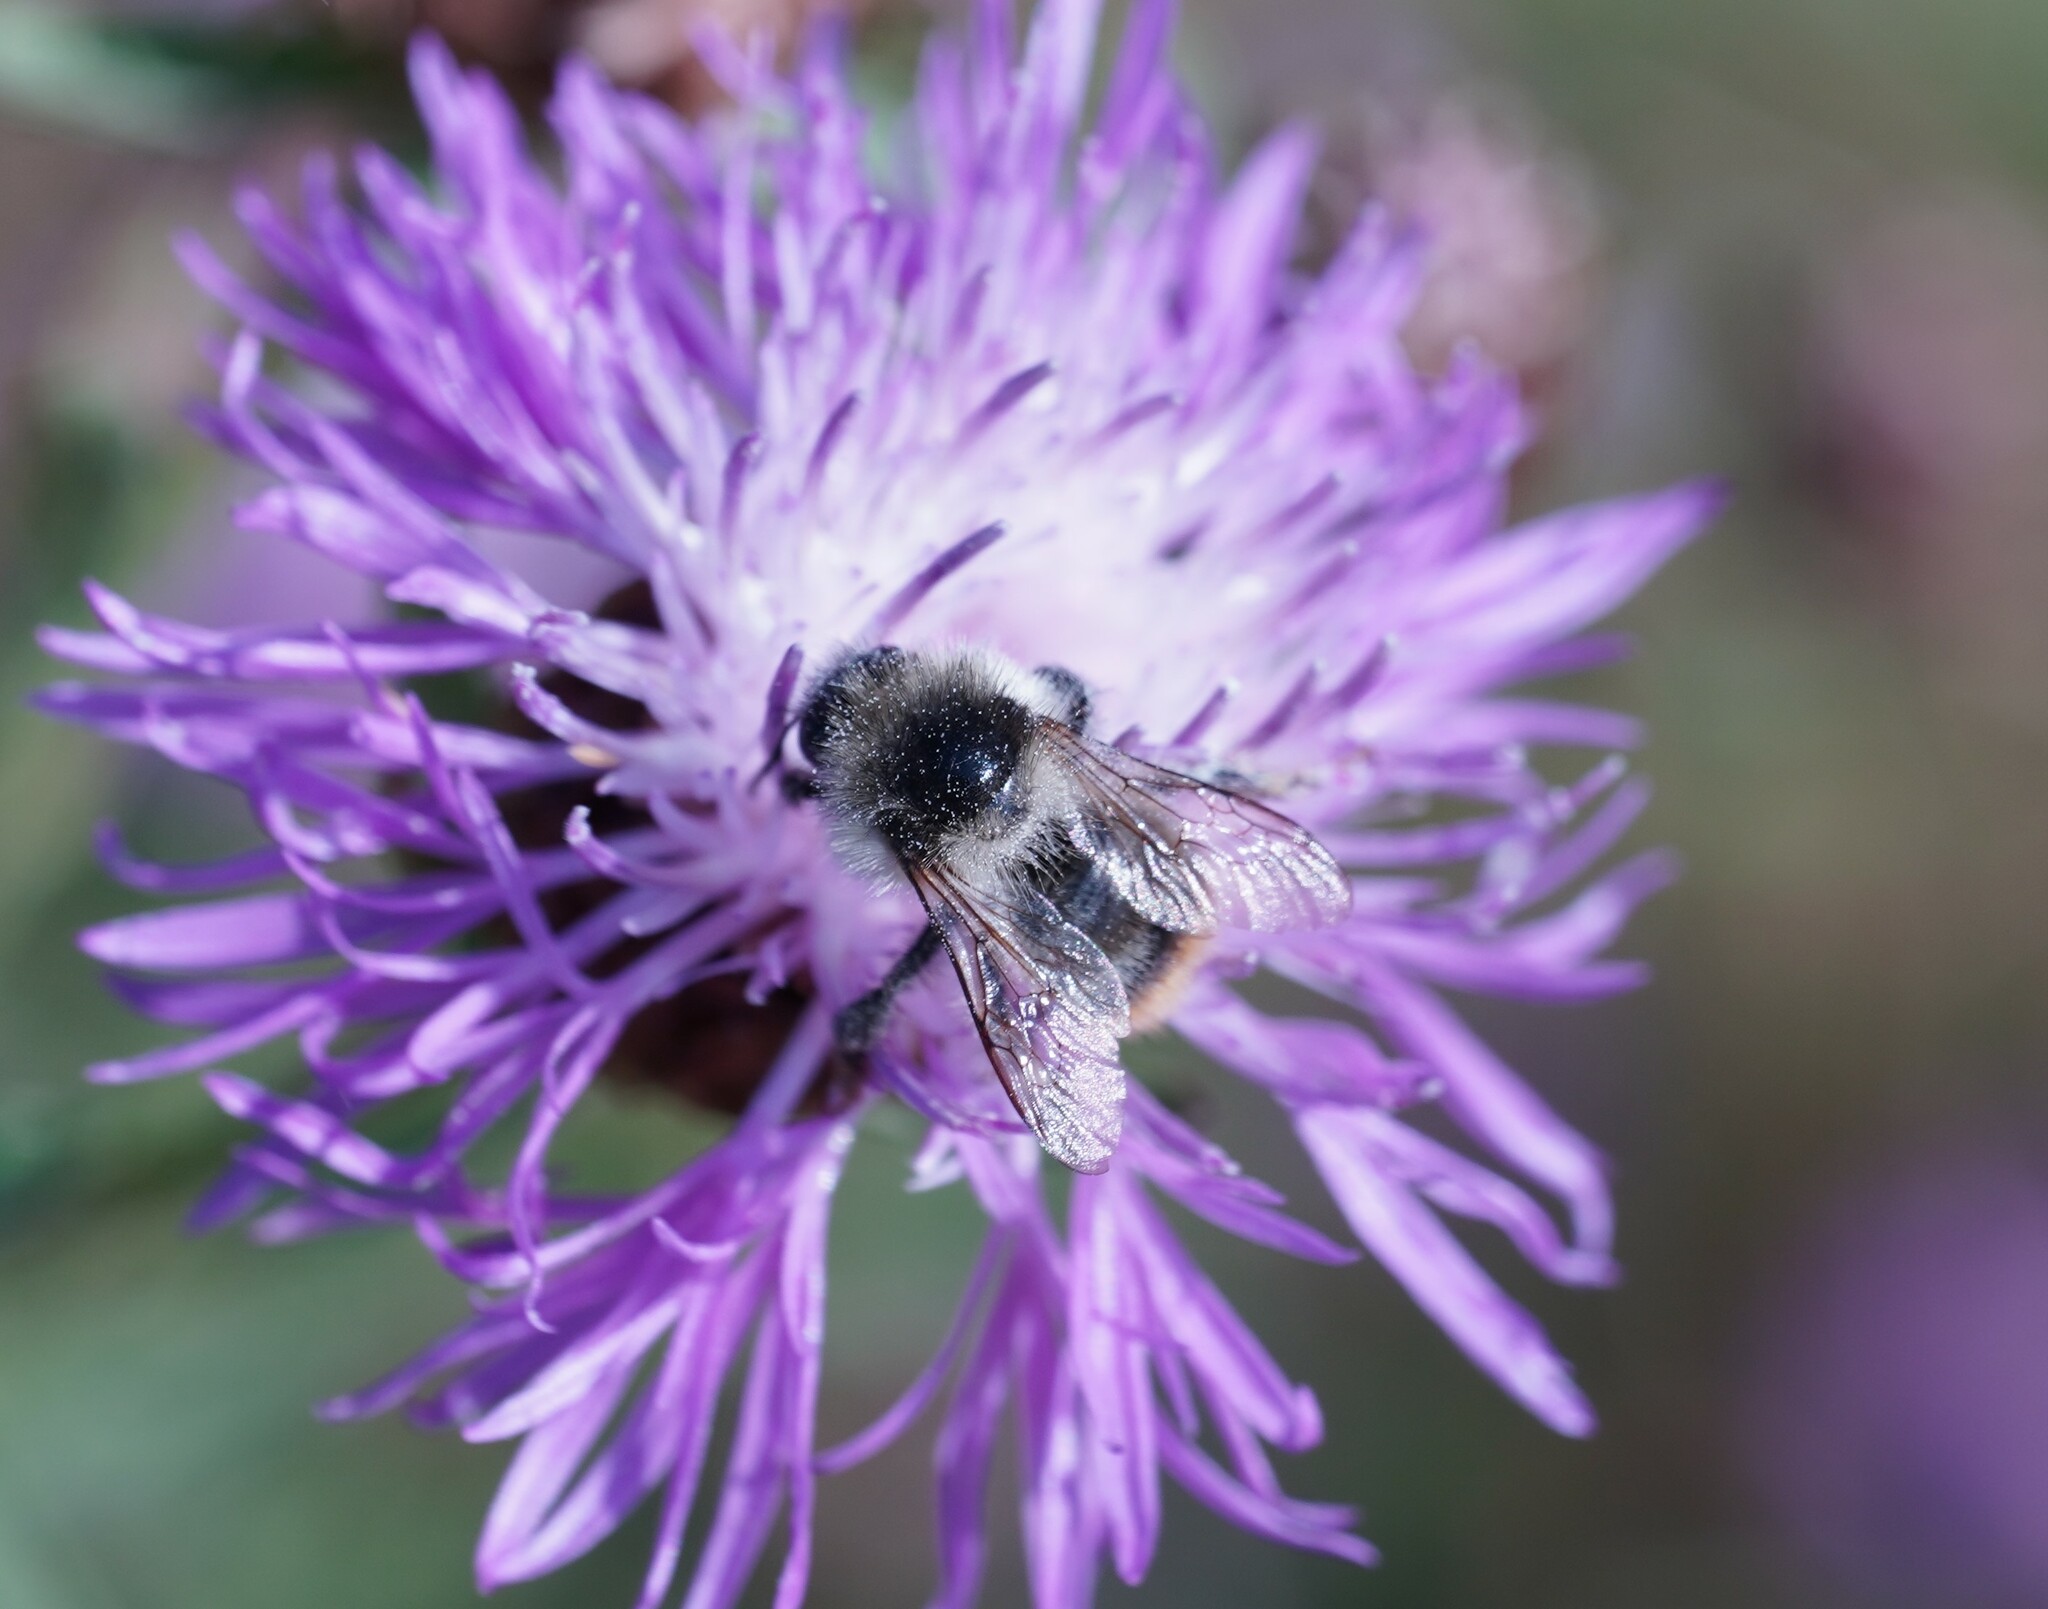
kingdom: Animalia
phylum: Arthropoda
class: Insecta
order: Hymenoptera
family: Apidae
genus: Bombus
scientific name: Bombus sylvarum
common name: Shrill carder bee
